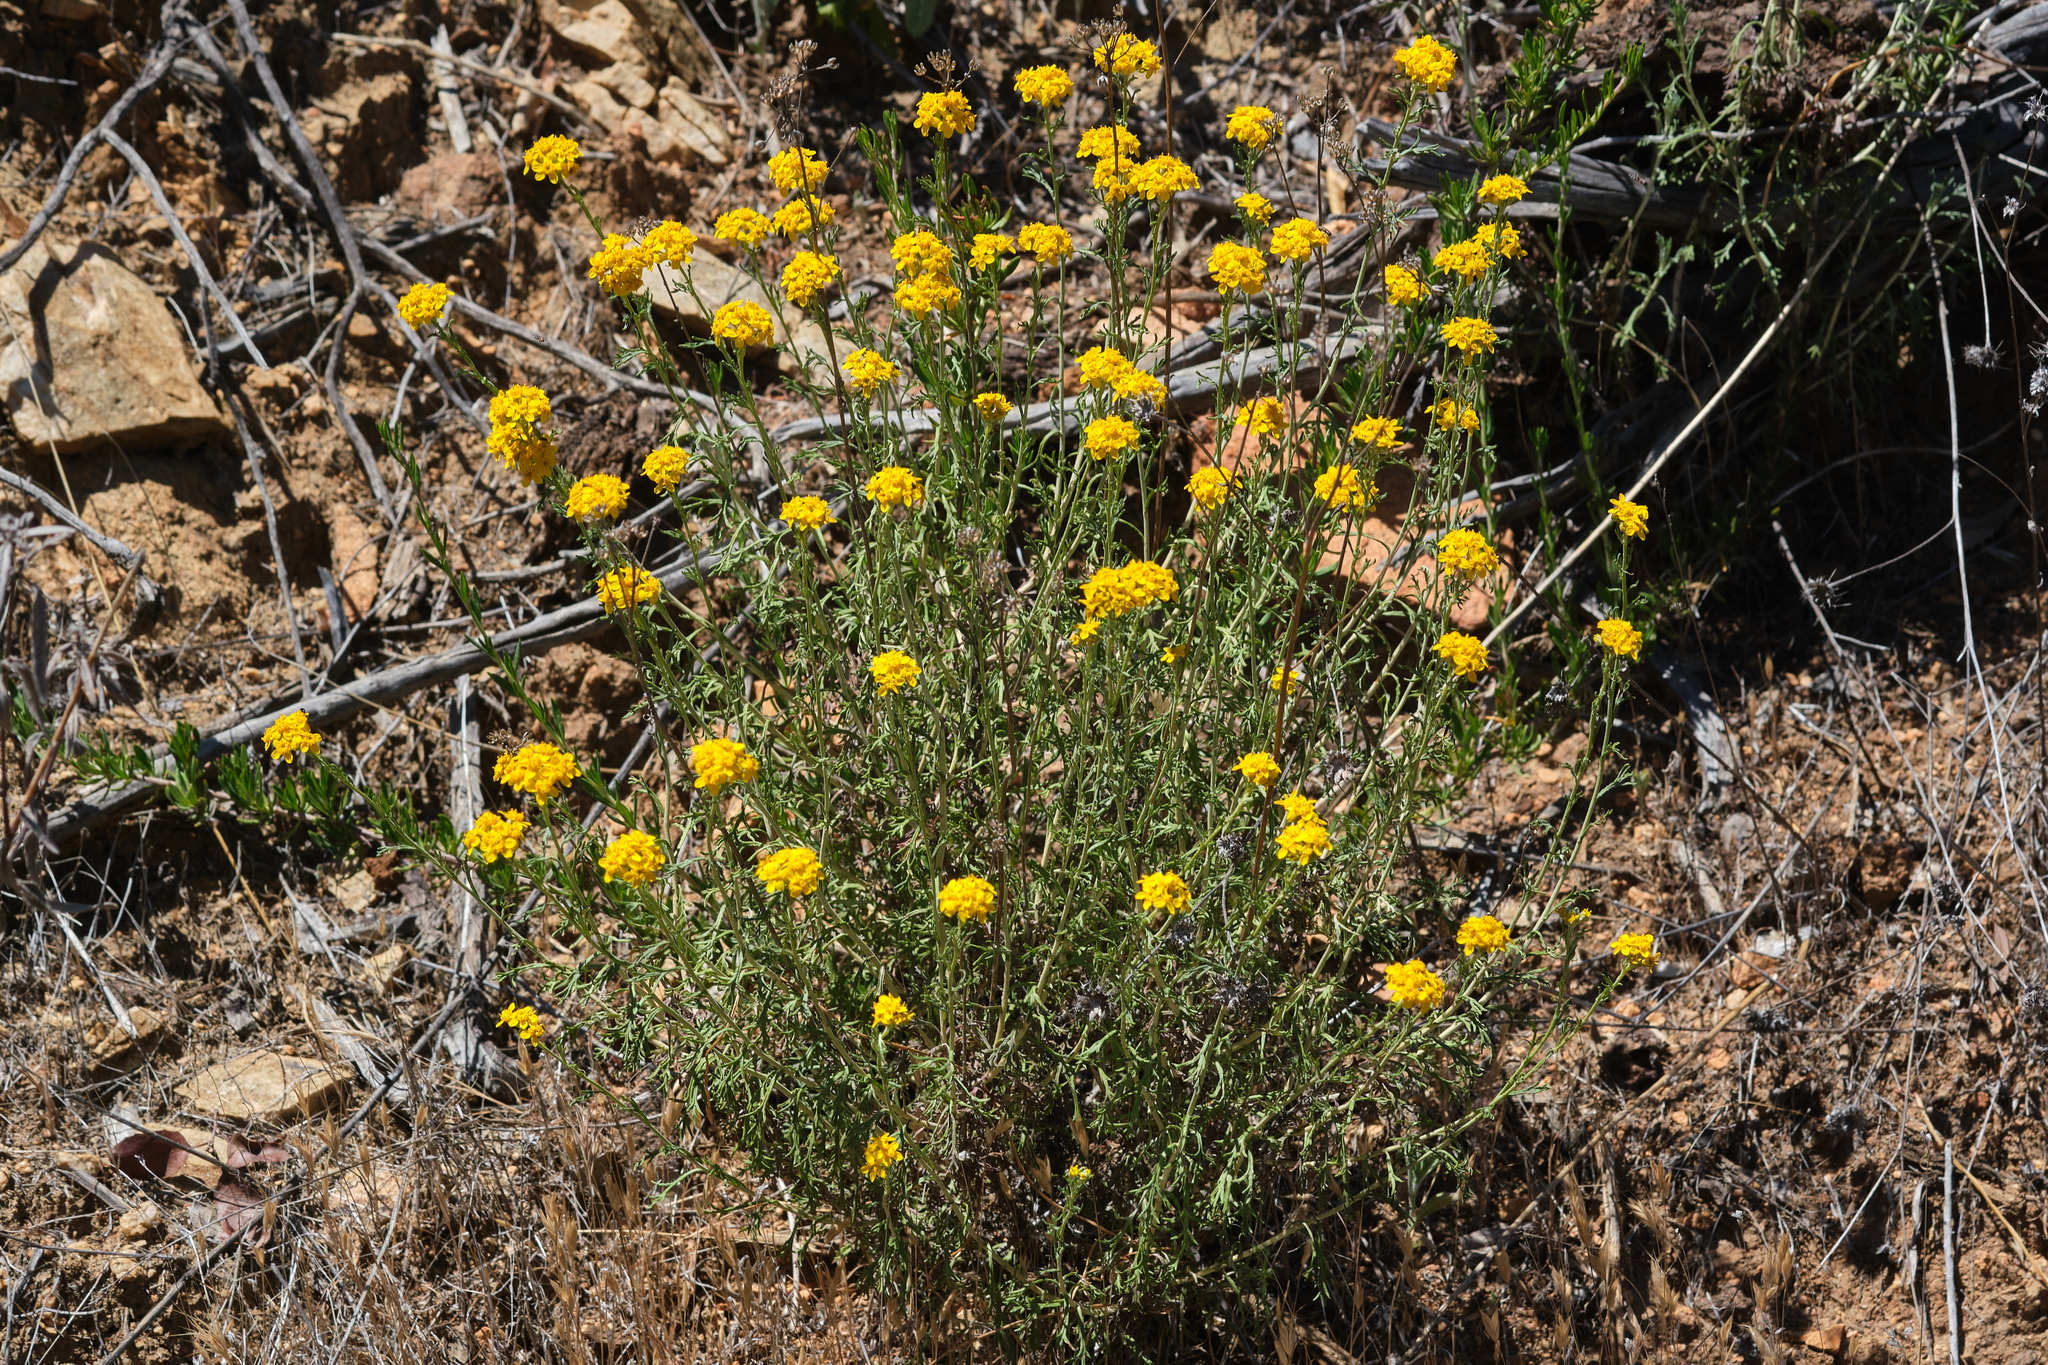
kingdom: Plantae
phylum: Tracheophyta
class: Magnoliopsida
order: Asterales
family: Asteraceae
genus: Eriophyllum
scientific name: Eriophyllum confertiflorum
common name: Golden-yarrow
